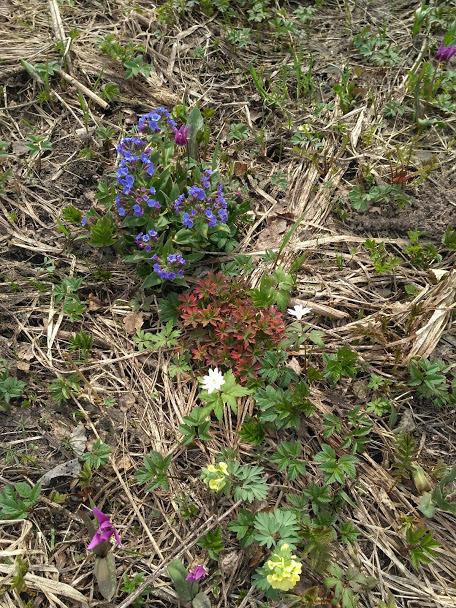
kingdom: Plantae
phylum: Tracheophyta
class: Magnoliopsida
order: Ranunculales
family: Papaveraceae
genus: Corydalis
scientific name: Corydalis bracteata
